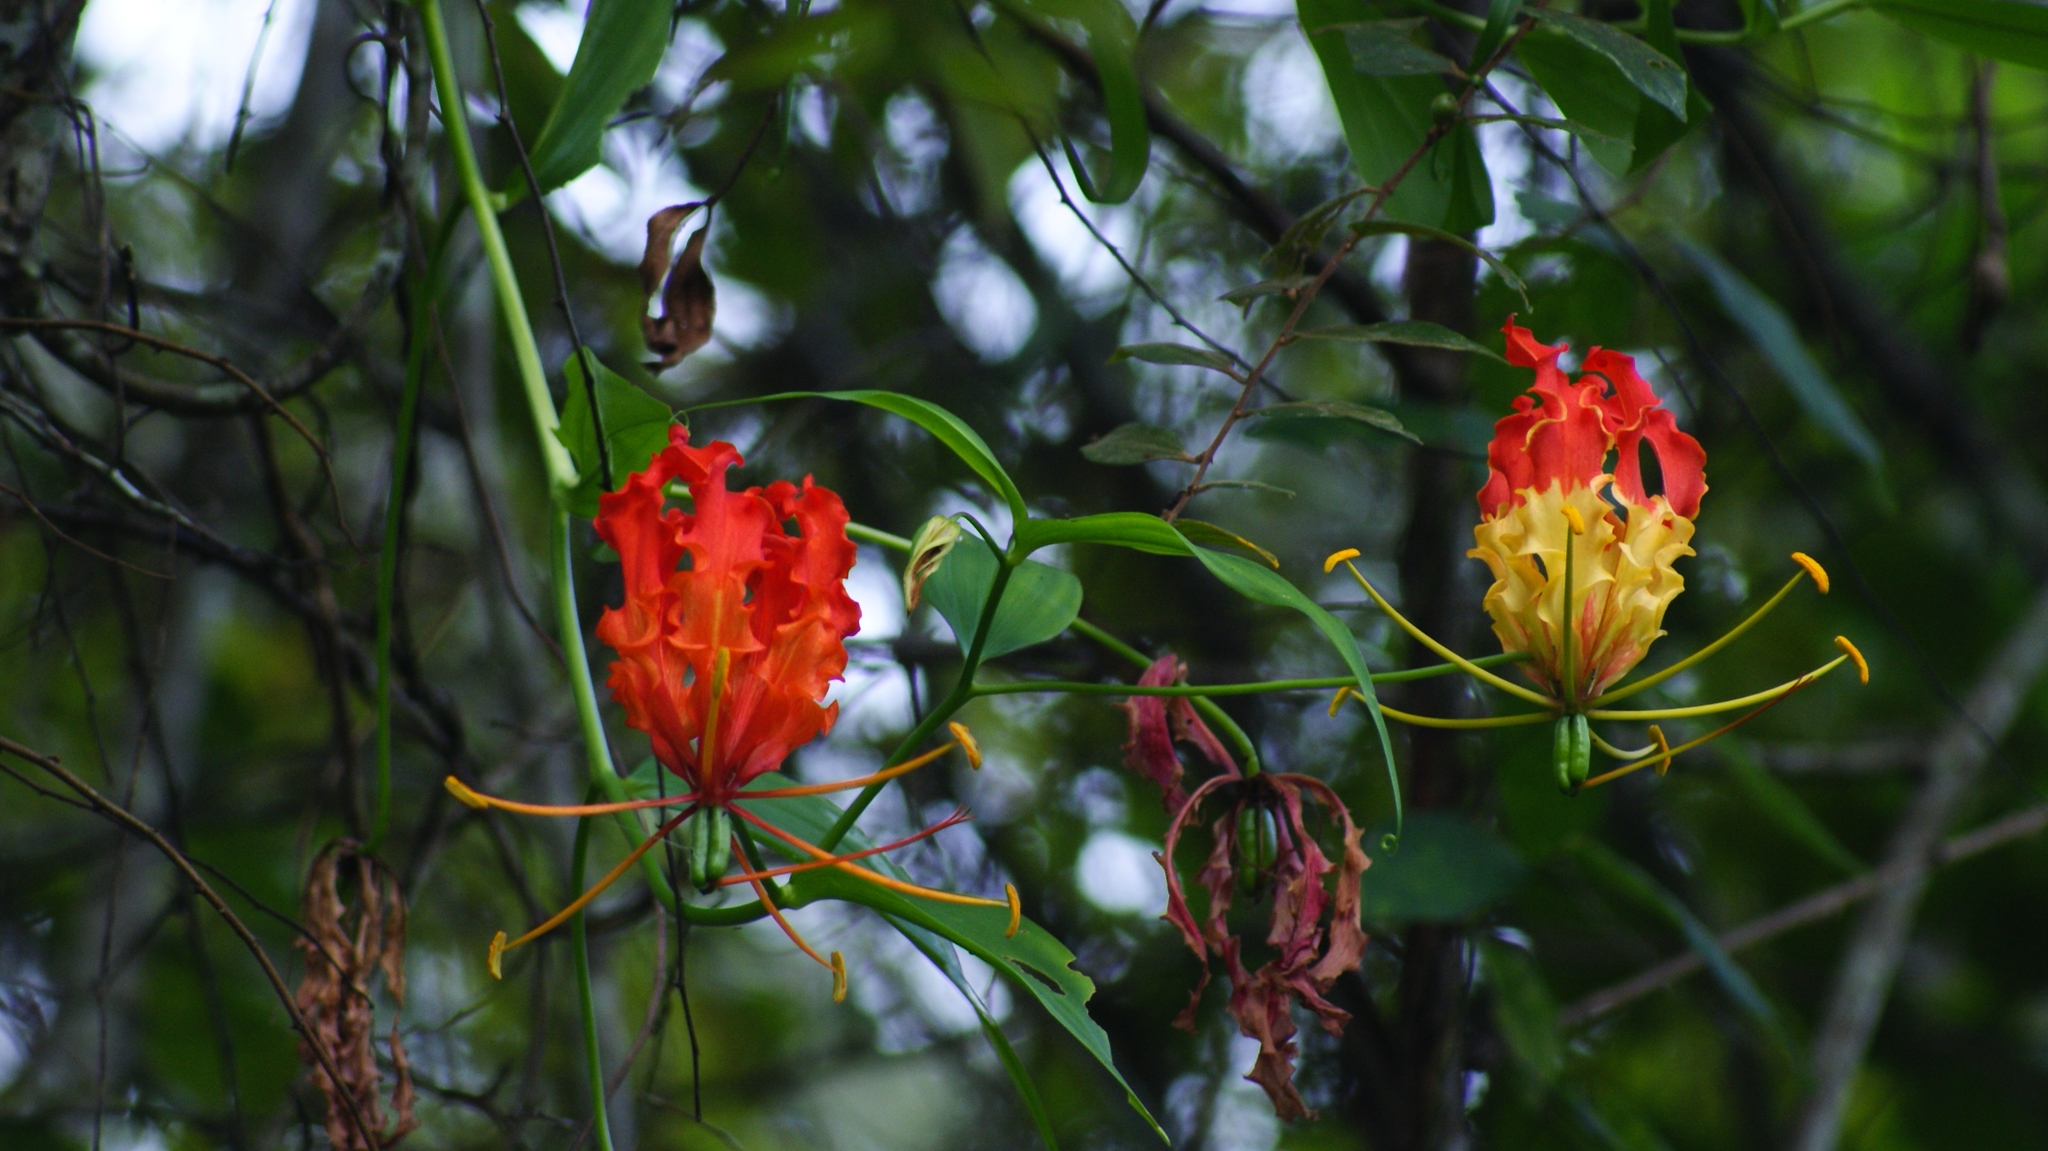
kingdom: Plantae
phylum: Tracheophyta
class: Liliopsida
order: Liliales
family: Colchicaceae
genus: Gloriosa
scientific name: Gloriosa superba
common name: Flame lily
